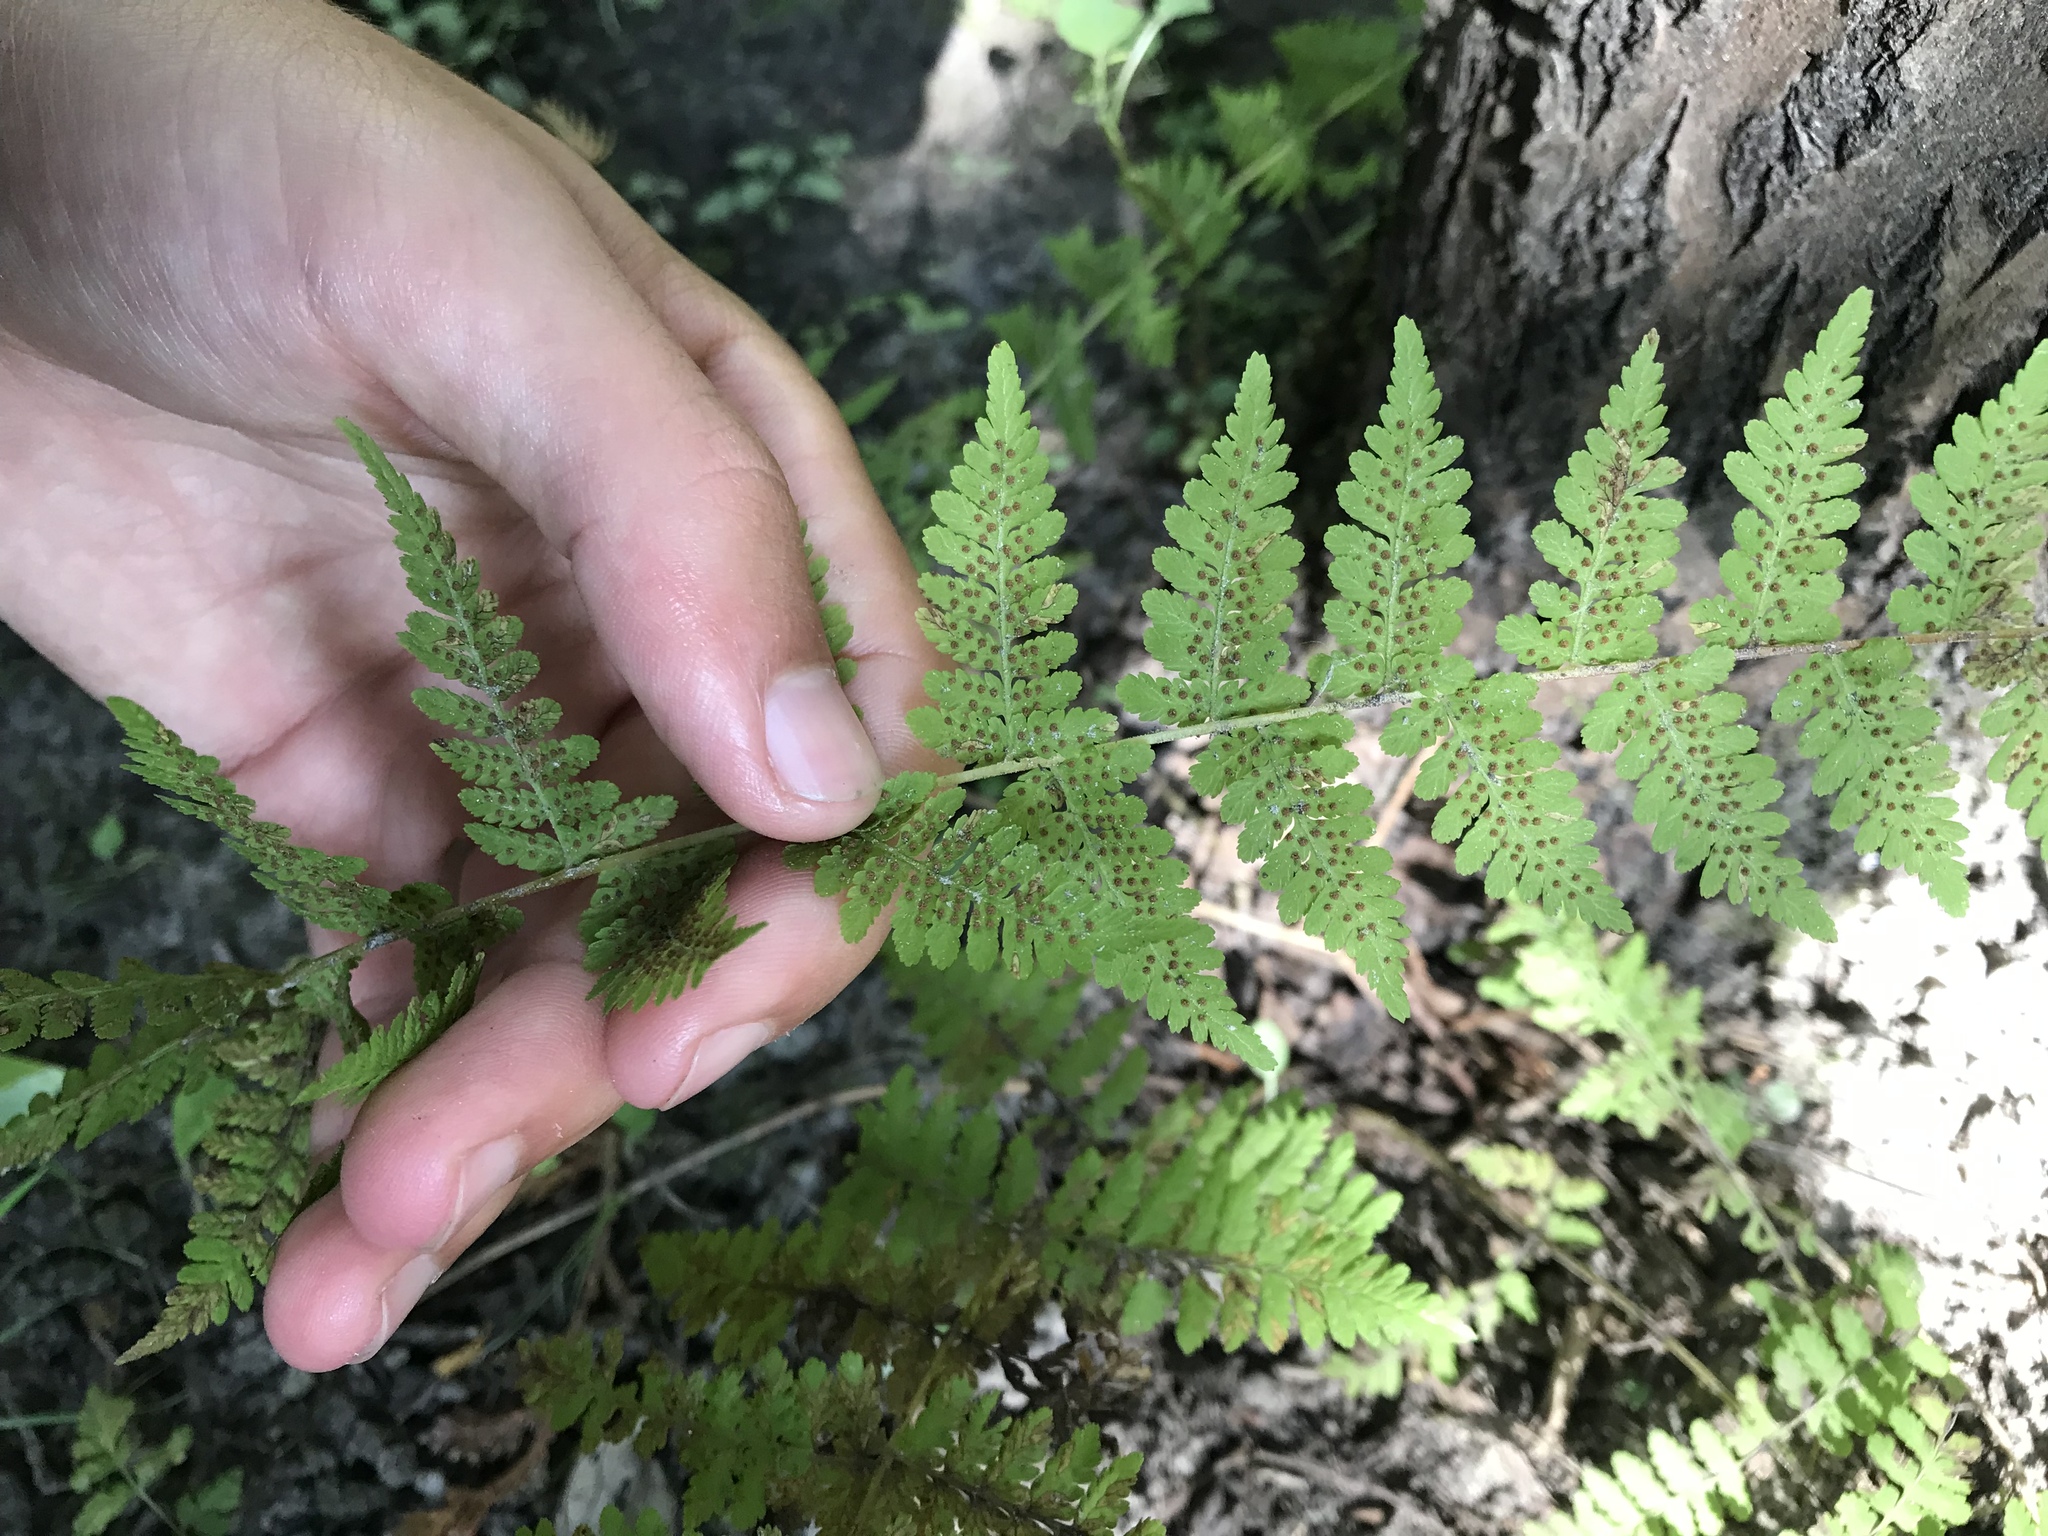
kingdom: Plantae
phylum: Tracheophyta
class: Polypodiopsida
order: Polypodiales
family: Cystopteridaceae
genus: Cystopteris
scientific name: Cystopteris bulbifera
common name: Bulblet bladder fern
